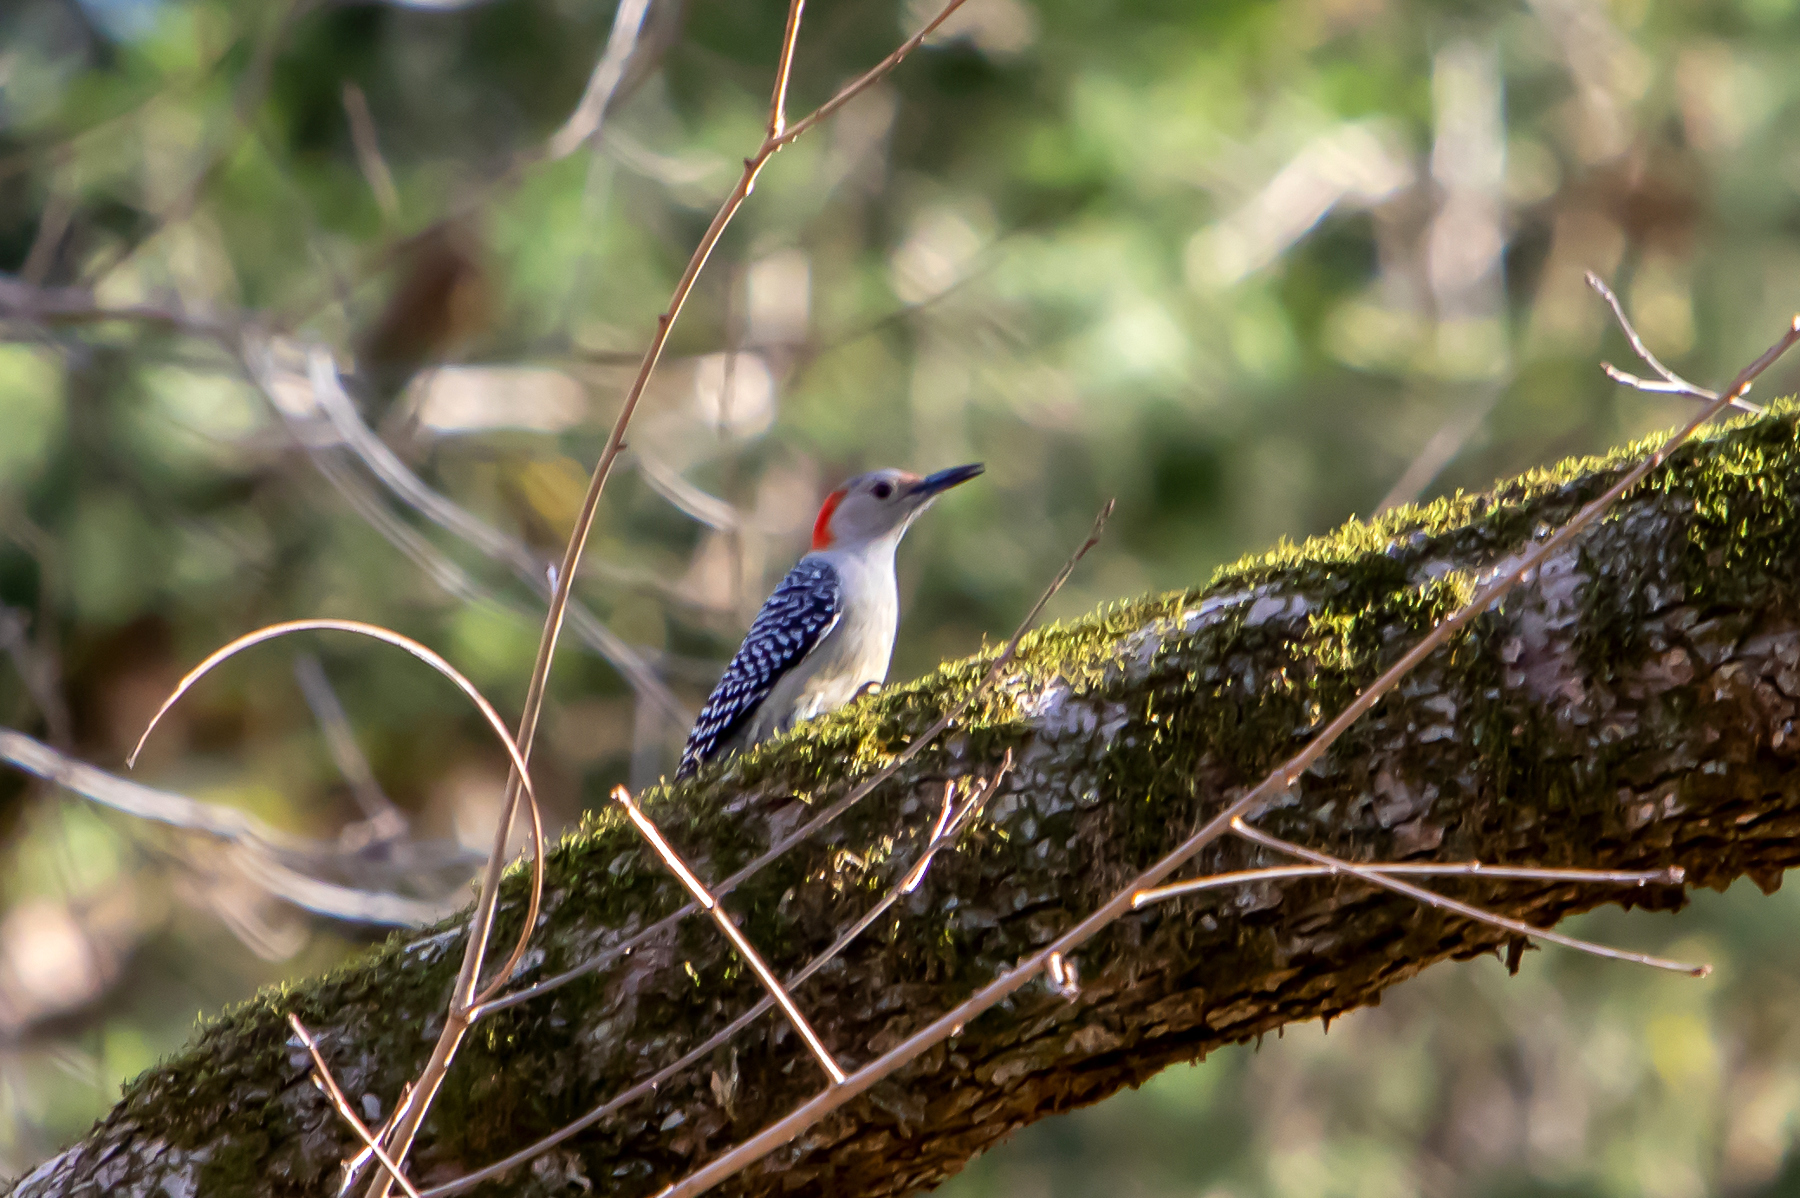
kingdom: Animalia
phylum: Chordata
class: Aves
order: Piciformes
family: Picidae
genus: Melanerpes
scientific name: Melanerpes carolinus
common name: Red-bellied woodpecker
